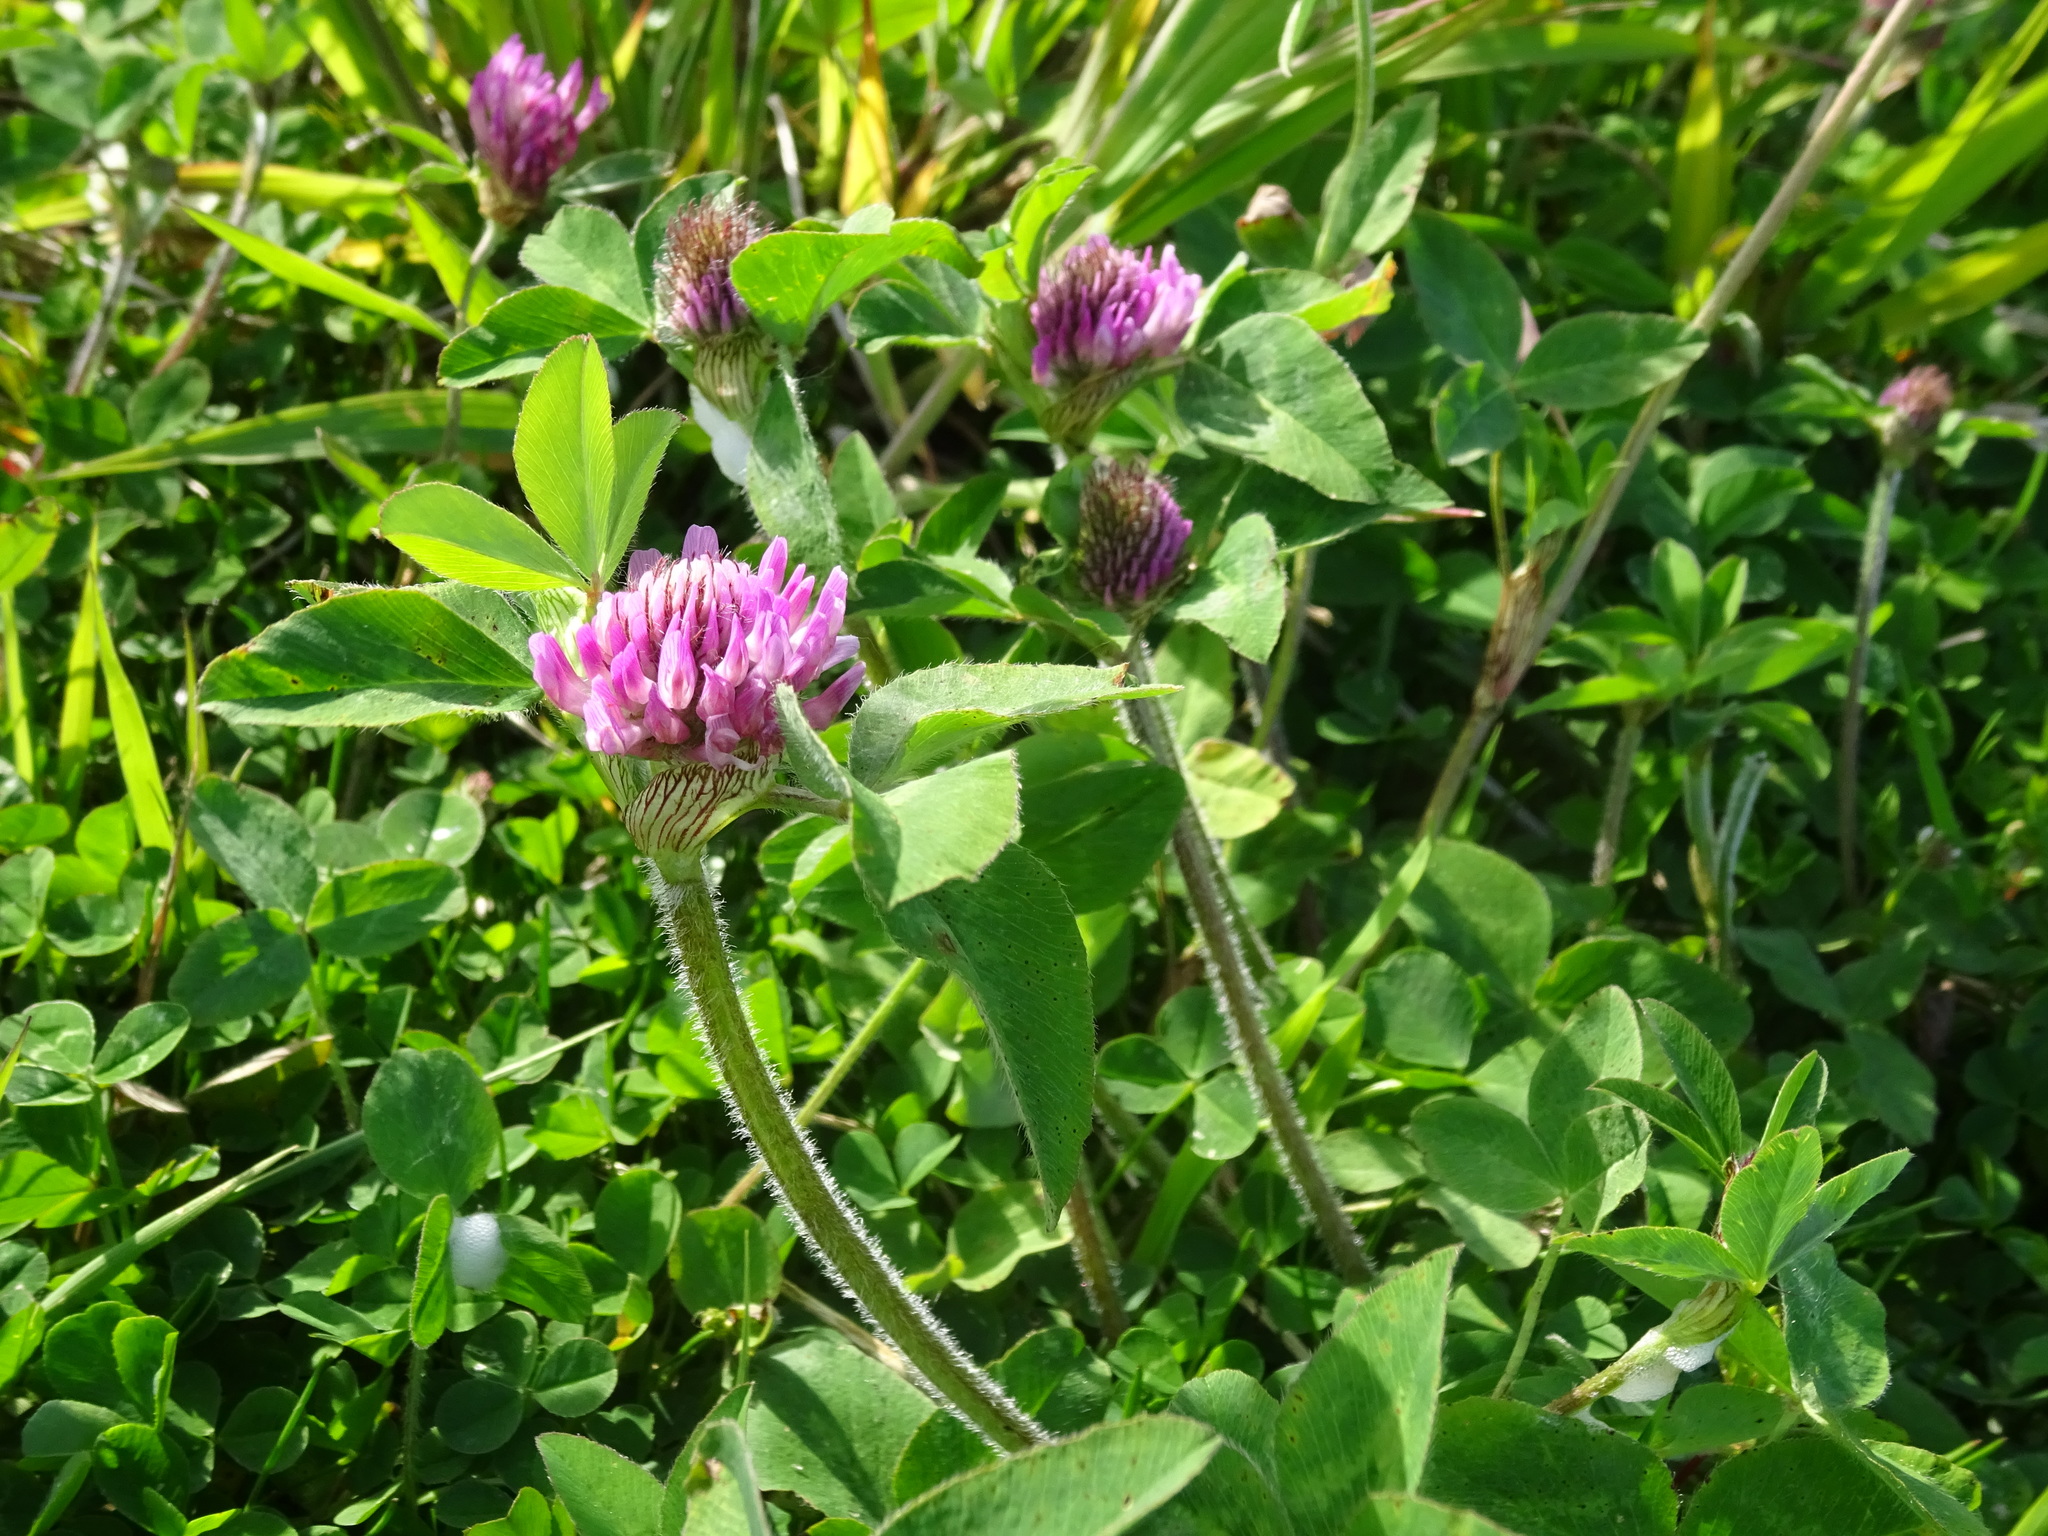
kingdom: Plantae
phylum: Tracheophyta
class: Magnoliopsida
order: Fabales
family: Fabaceae
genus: Trifolium
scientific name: Trifolium pratense
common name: Red clover
